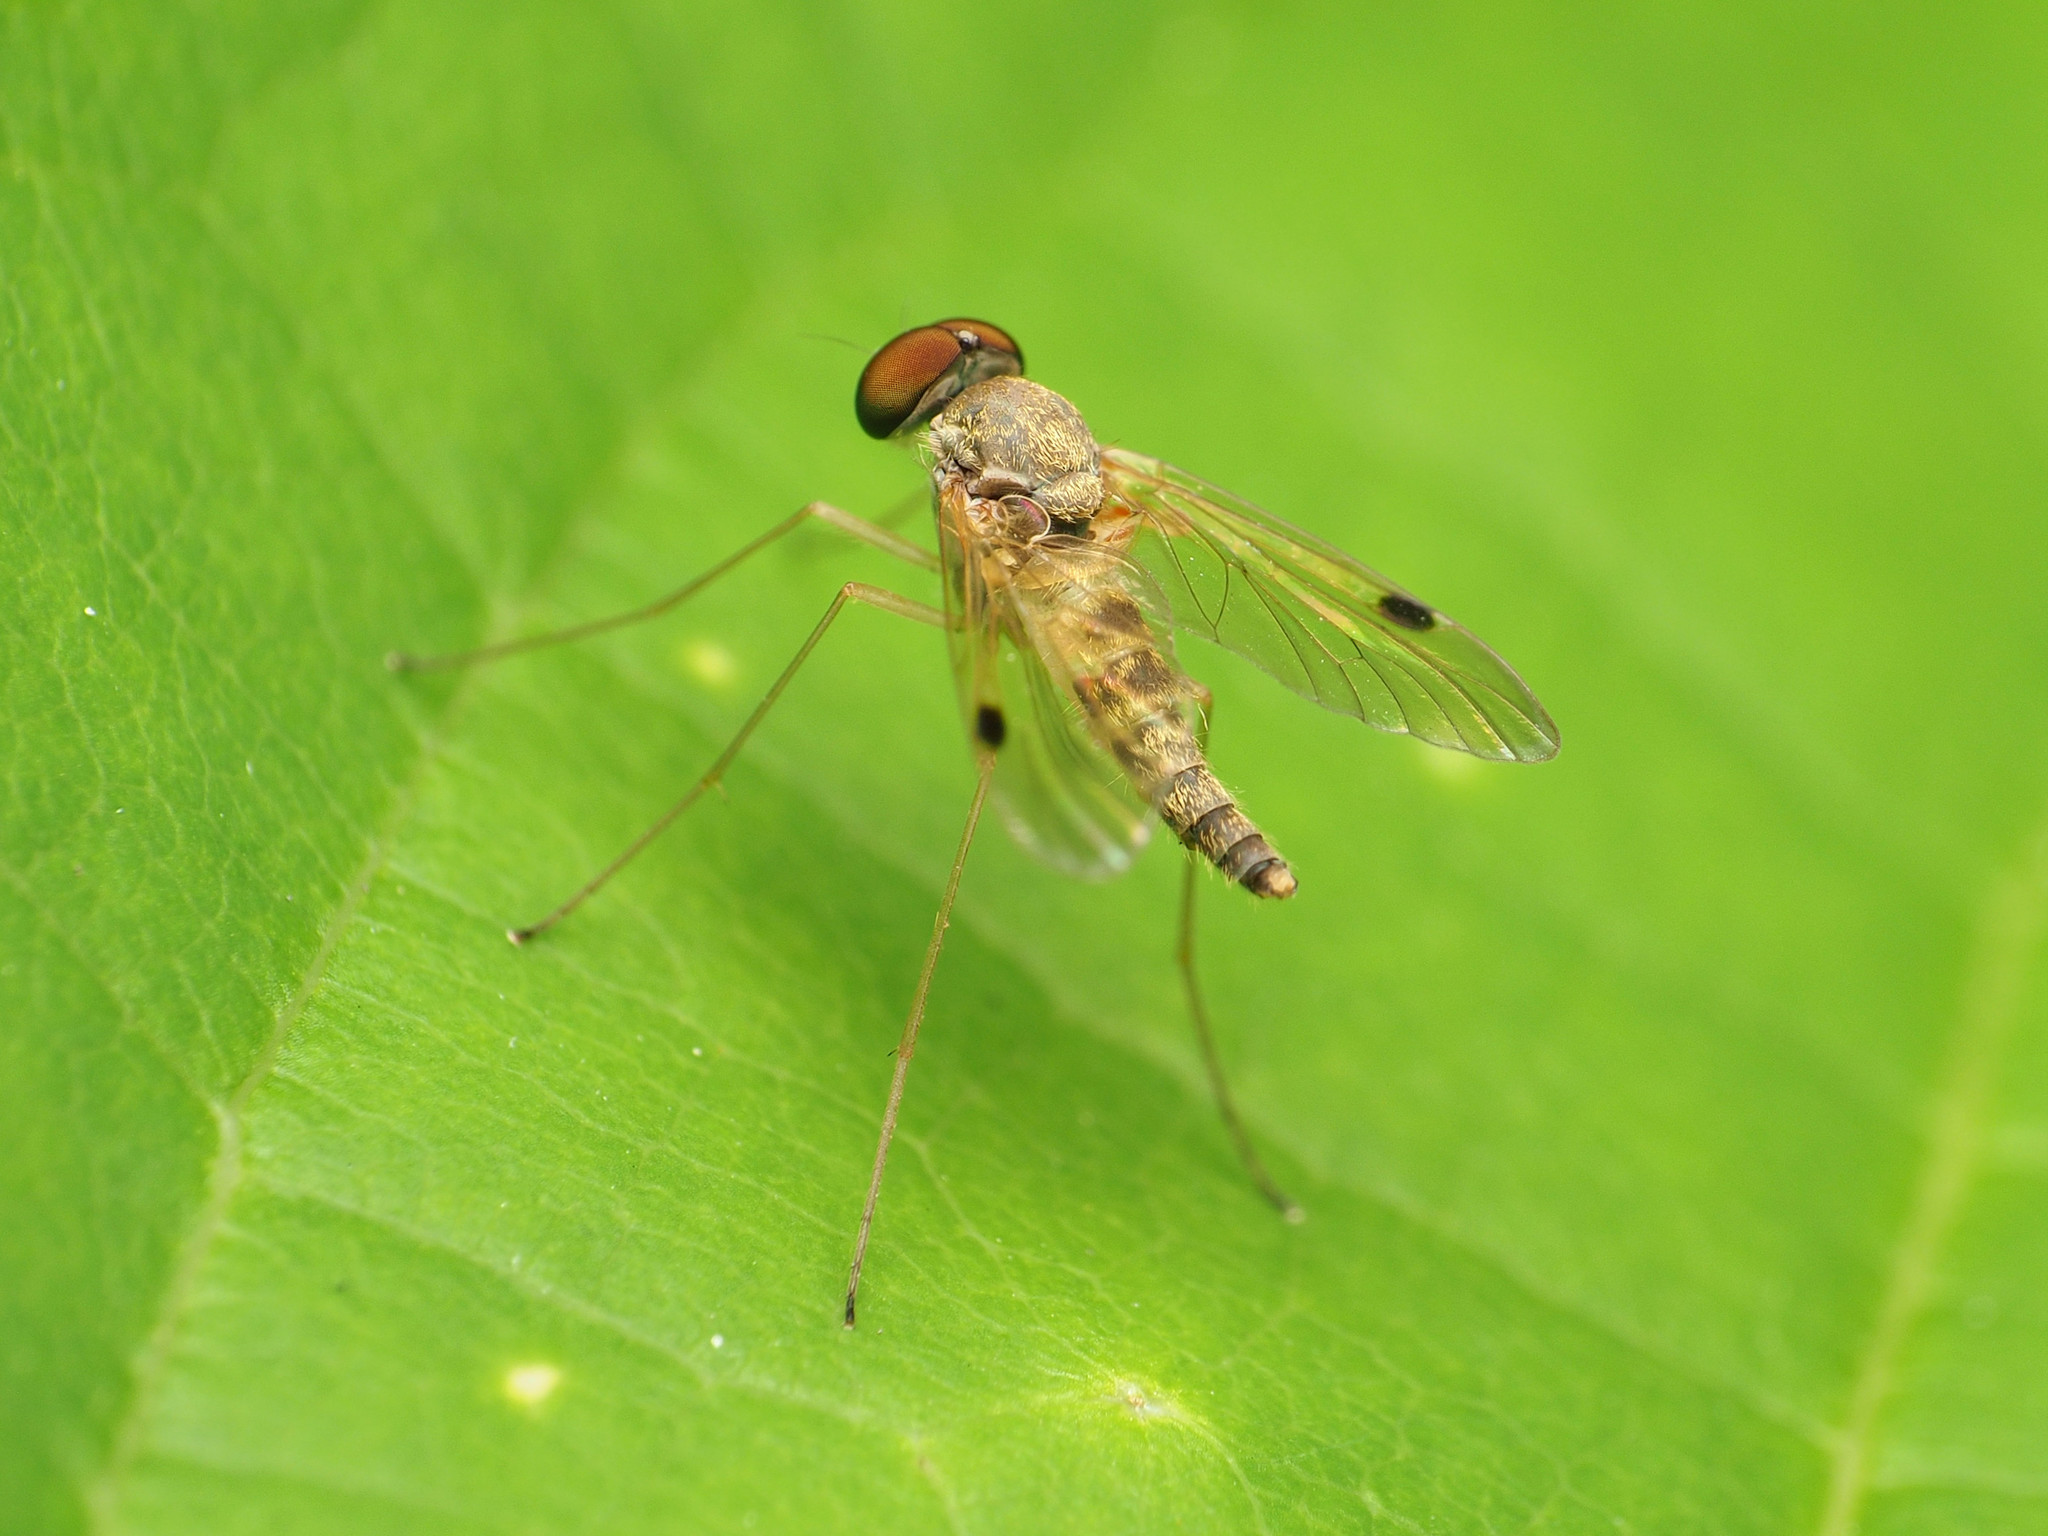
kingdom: Animalia
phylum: Arthropoda
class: Insecta
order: Diptera
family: Rhagionidae
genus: Chrysopilus
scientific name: Chrysopilus modestus
